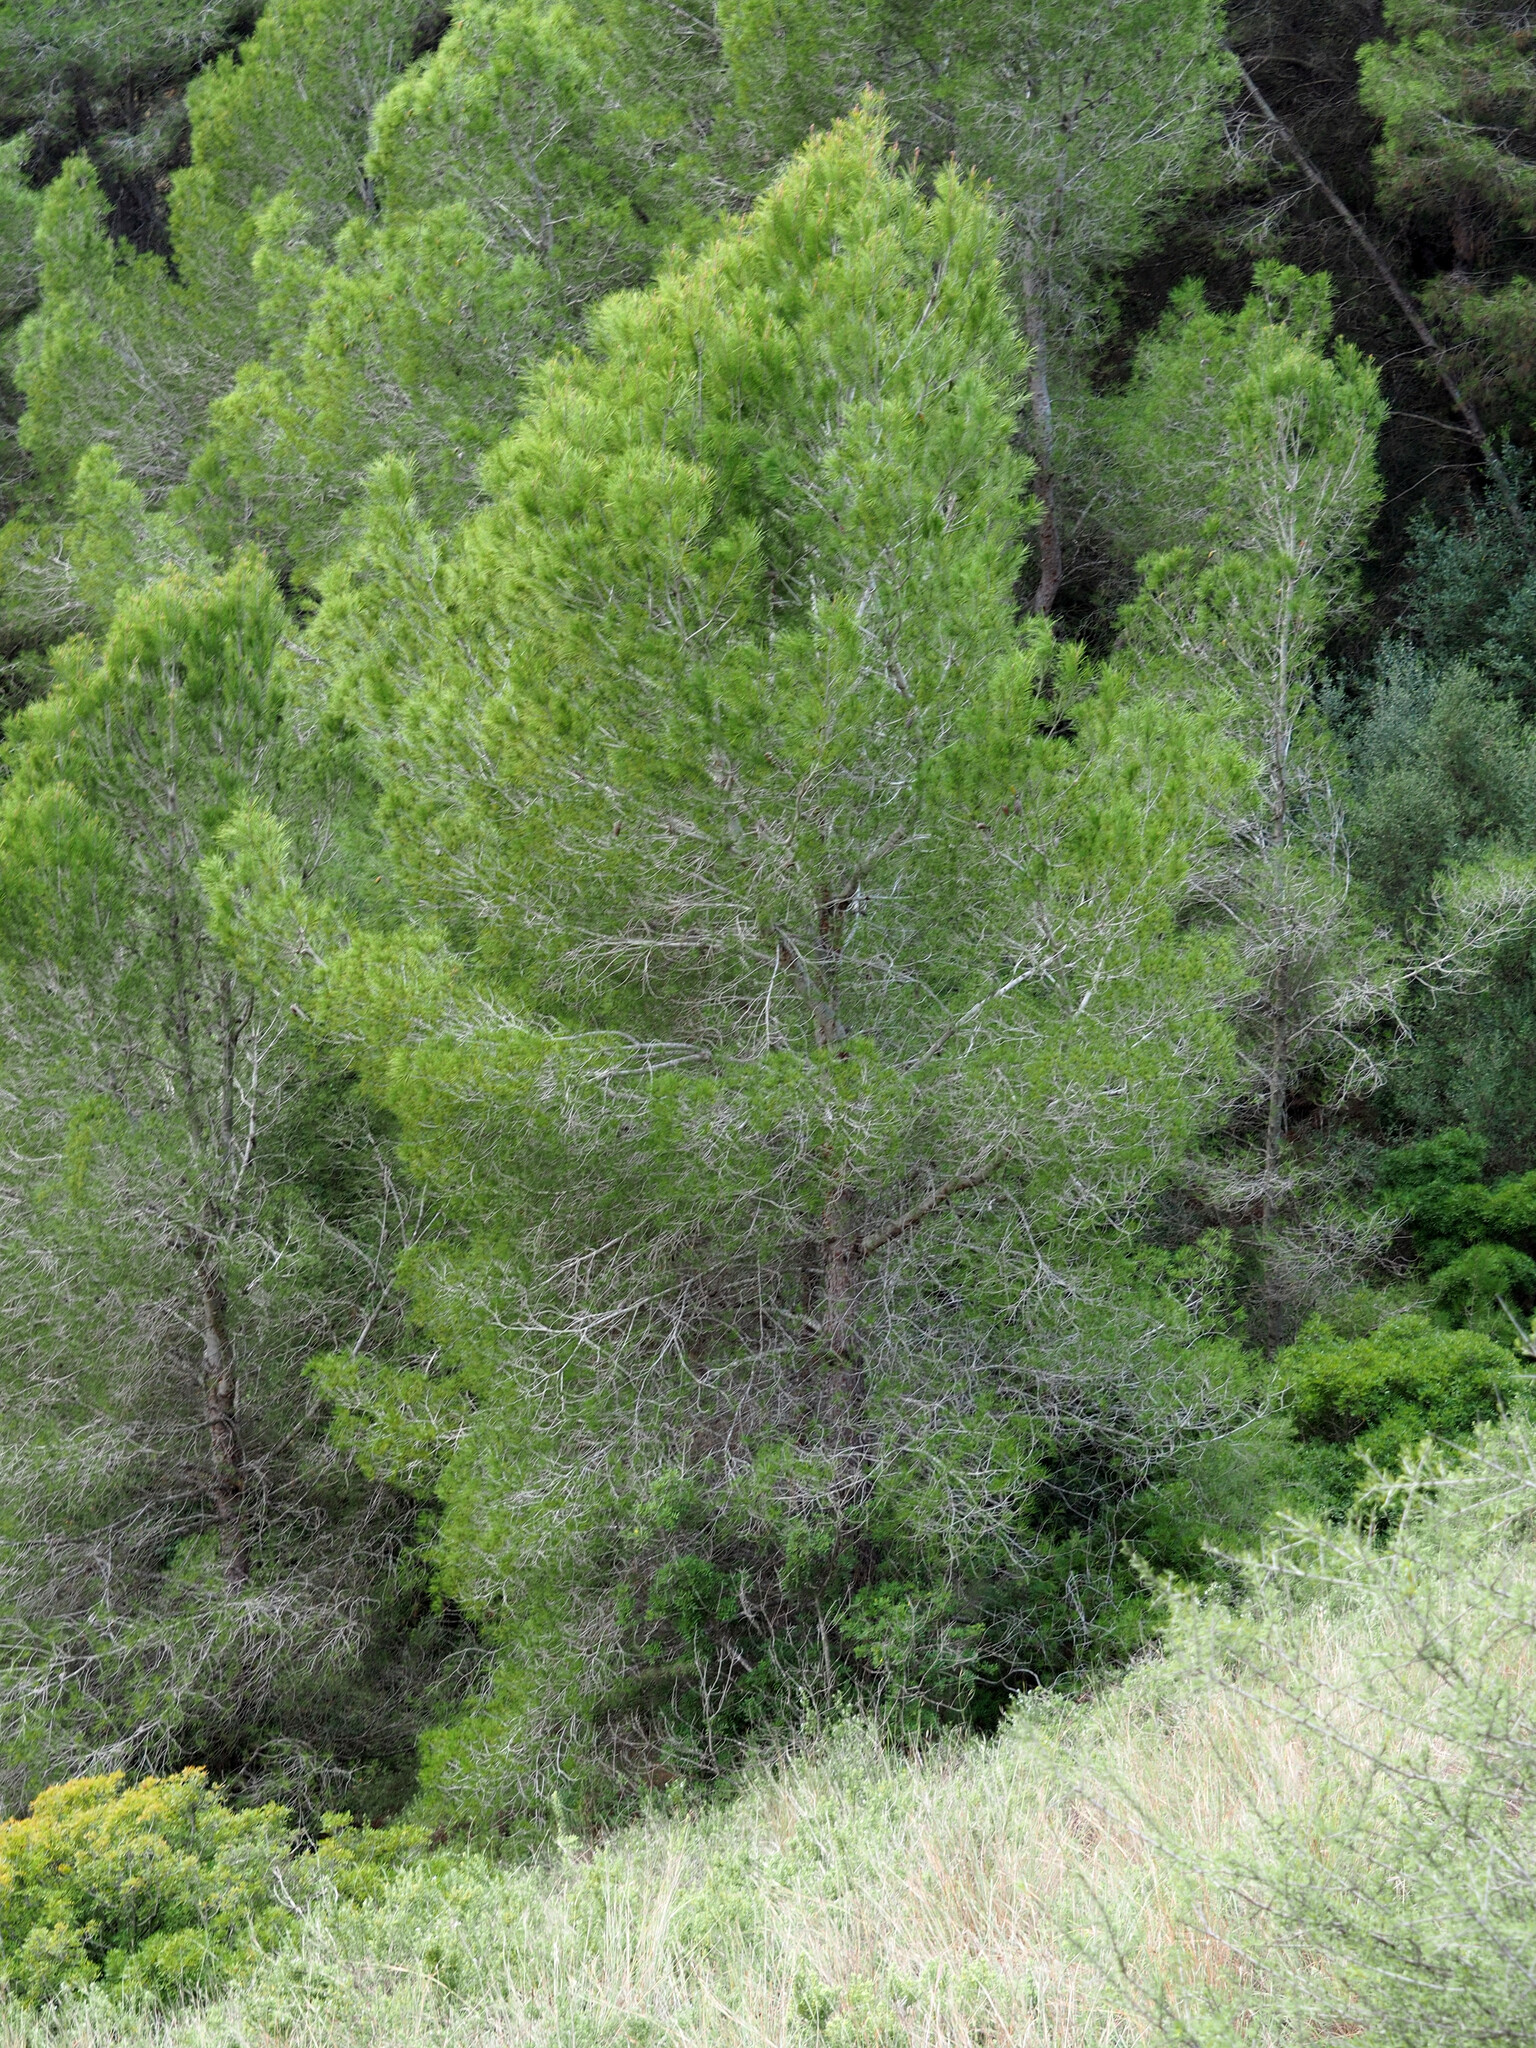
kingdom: Plantae
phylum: Tracheophyta
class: Pinopsida
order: Pinales
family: Pinaceae
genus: Pinus
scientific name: Pinus halepensis
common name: Aleppo pine
